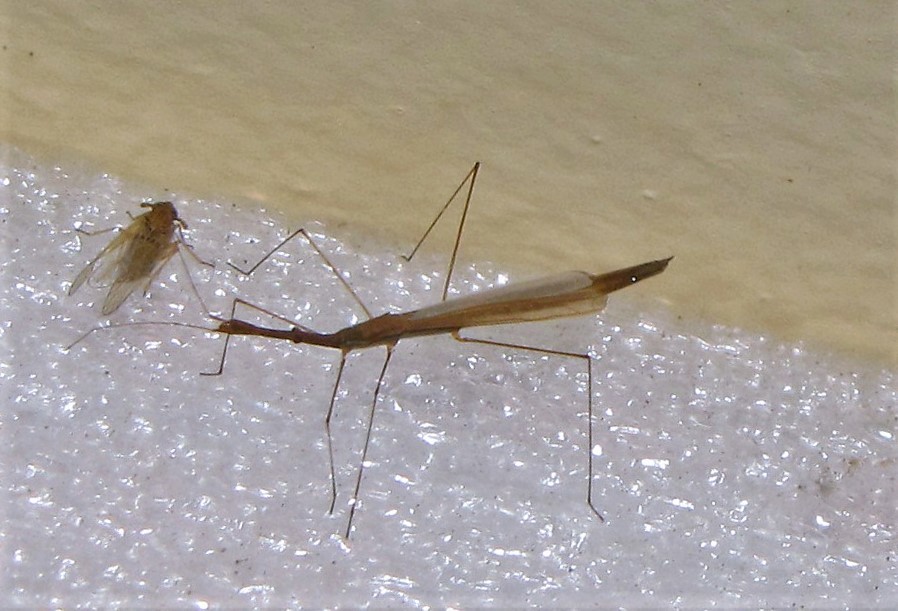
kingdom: Animalia
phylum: Arthropoda
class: Insecta
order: Hemiptera
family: Hydrometridae
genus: Hydrometra
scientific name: Hydrometra argentina
